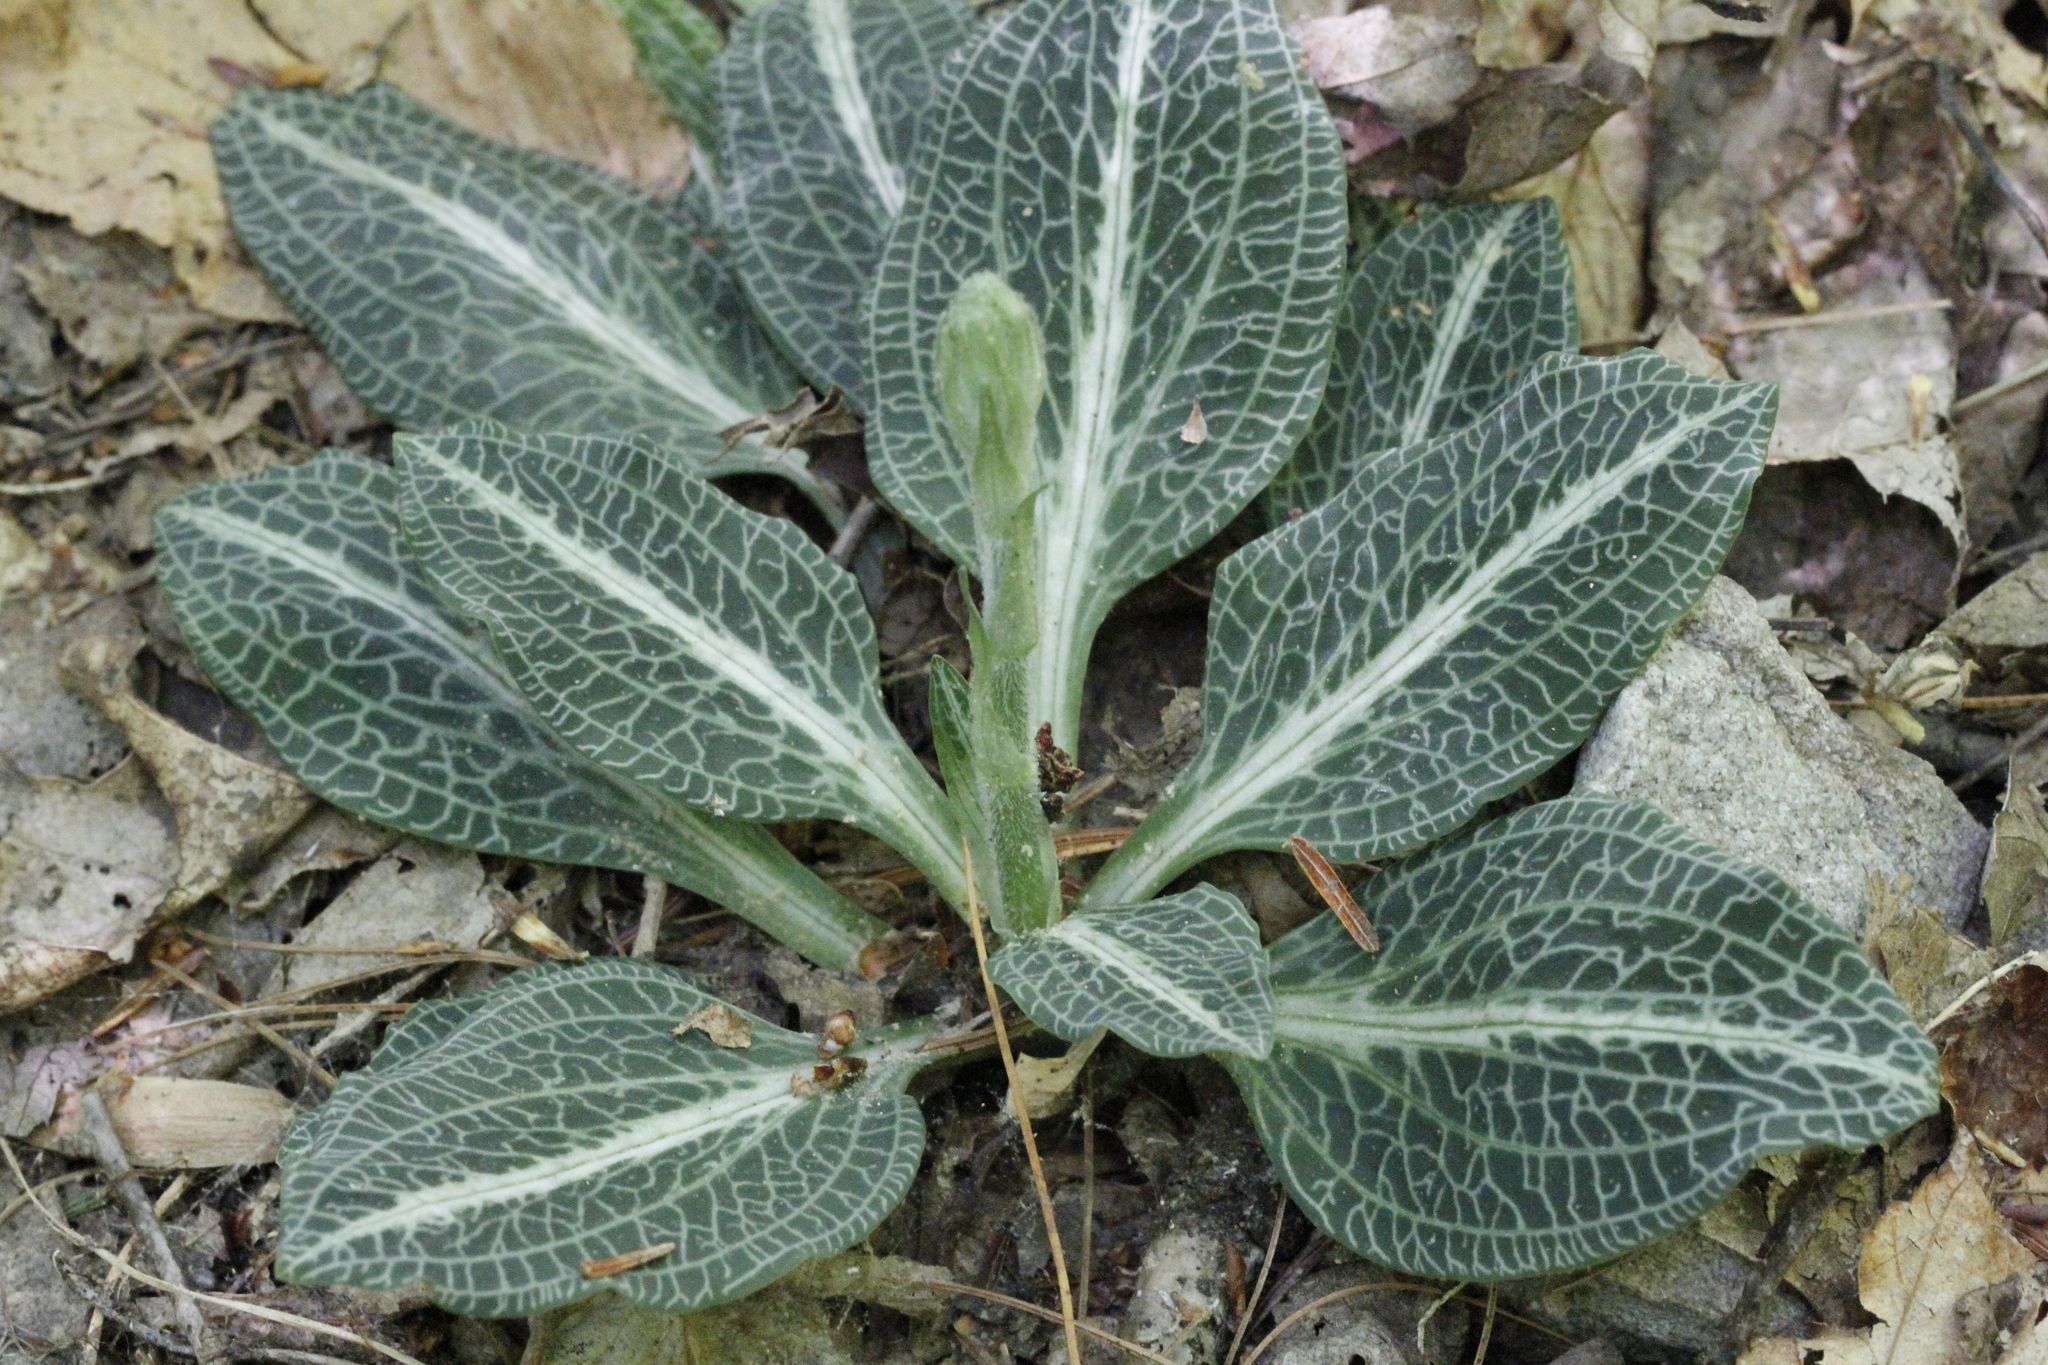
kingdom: Plantae
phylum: Tracheophyta
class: Liliopsida
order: Asparagales
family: Orchidaceae
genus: Goodyera
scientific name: Goodyera pubescens
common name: Downy rattlesnake-plantain
